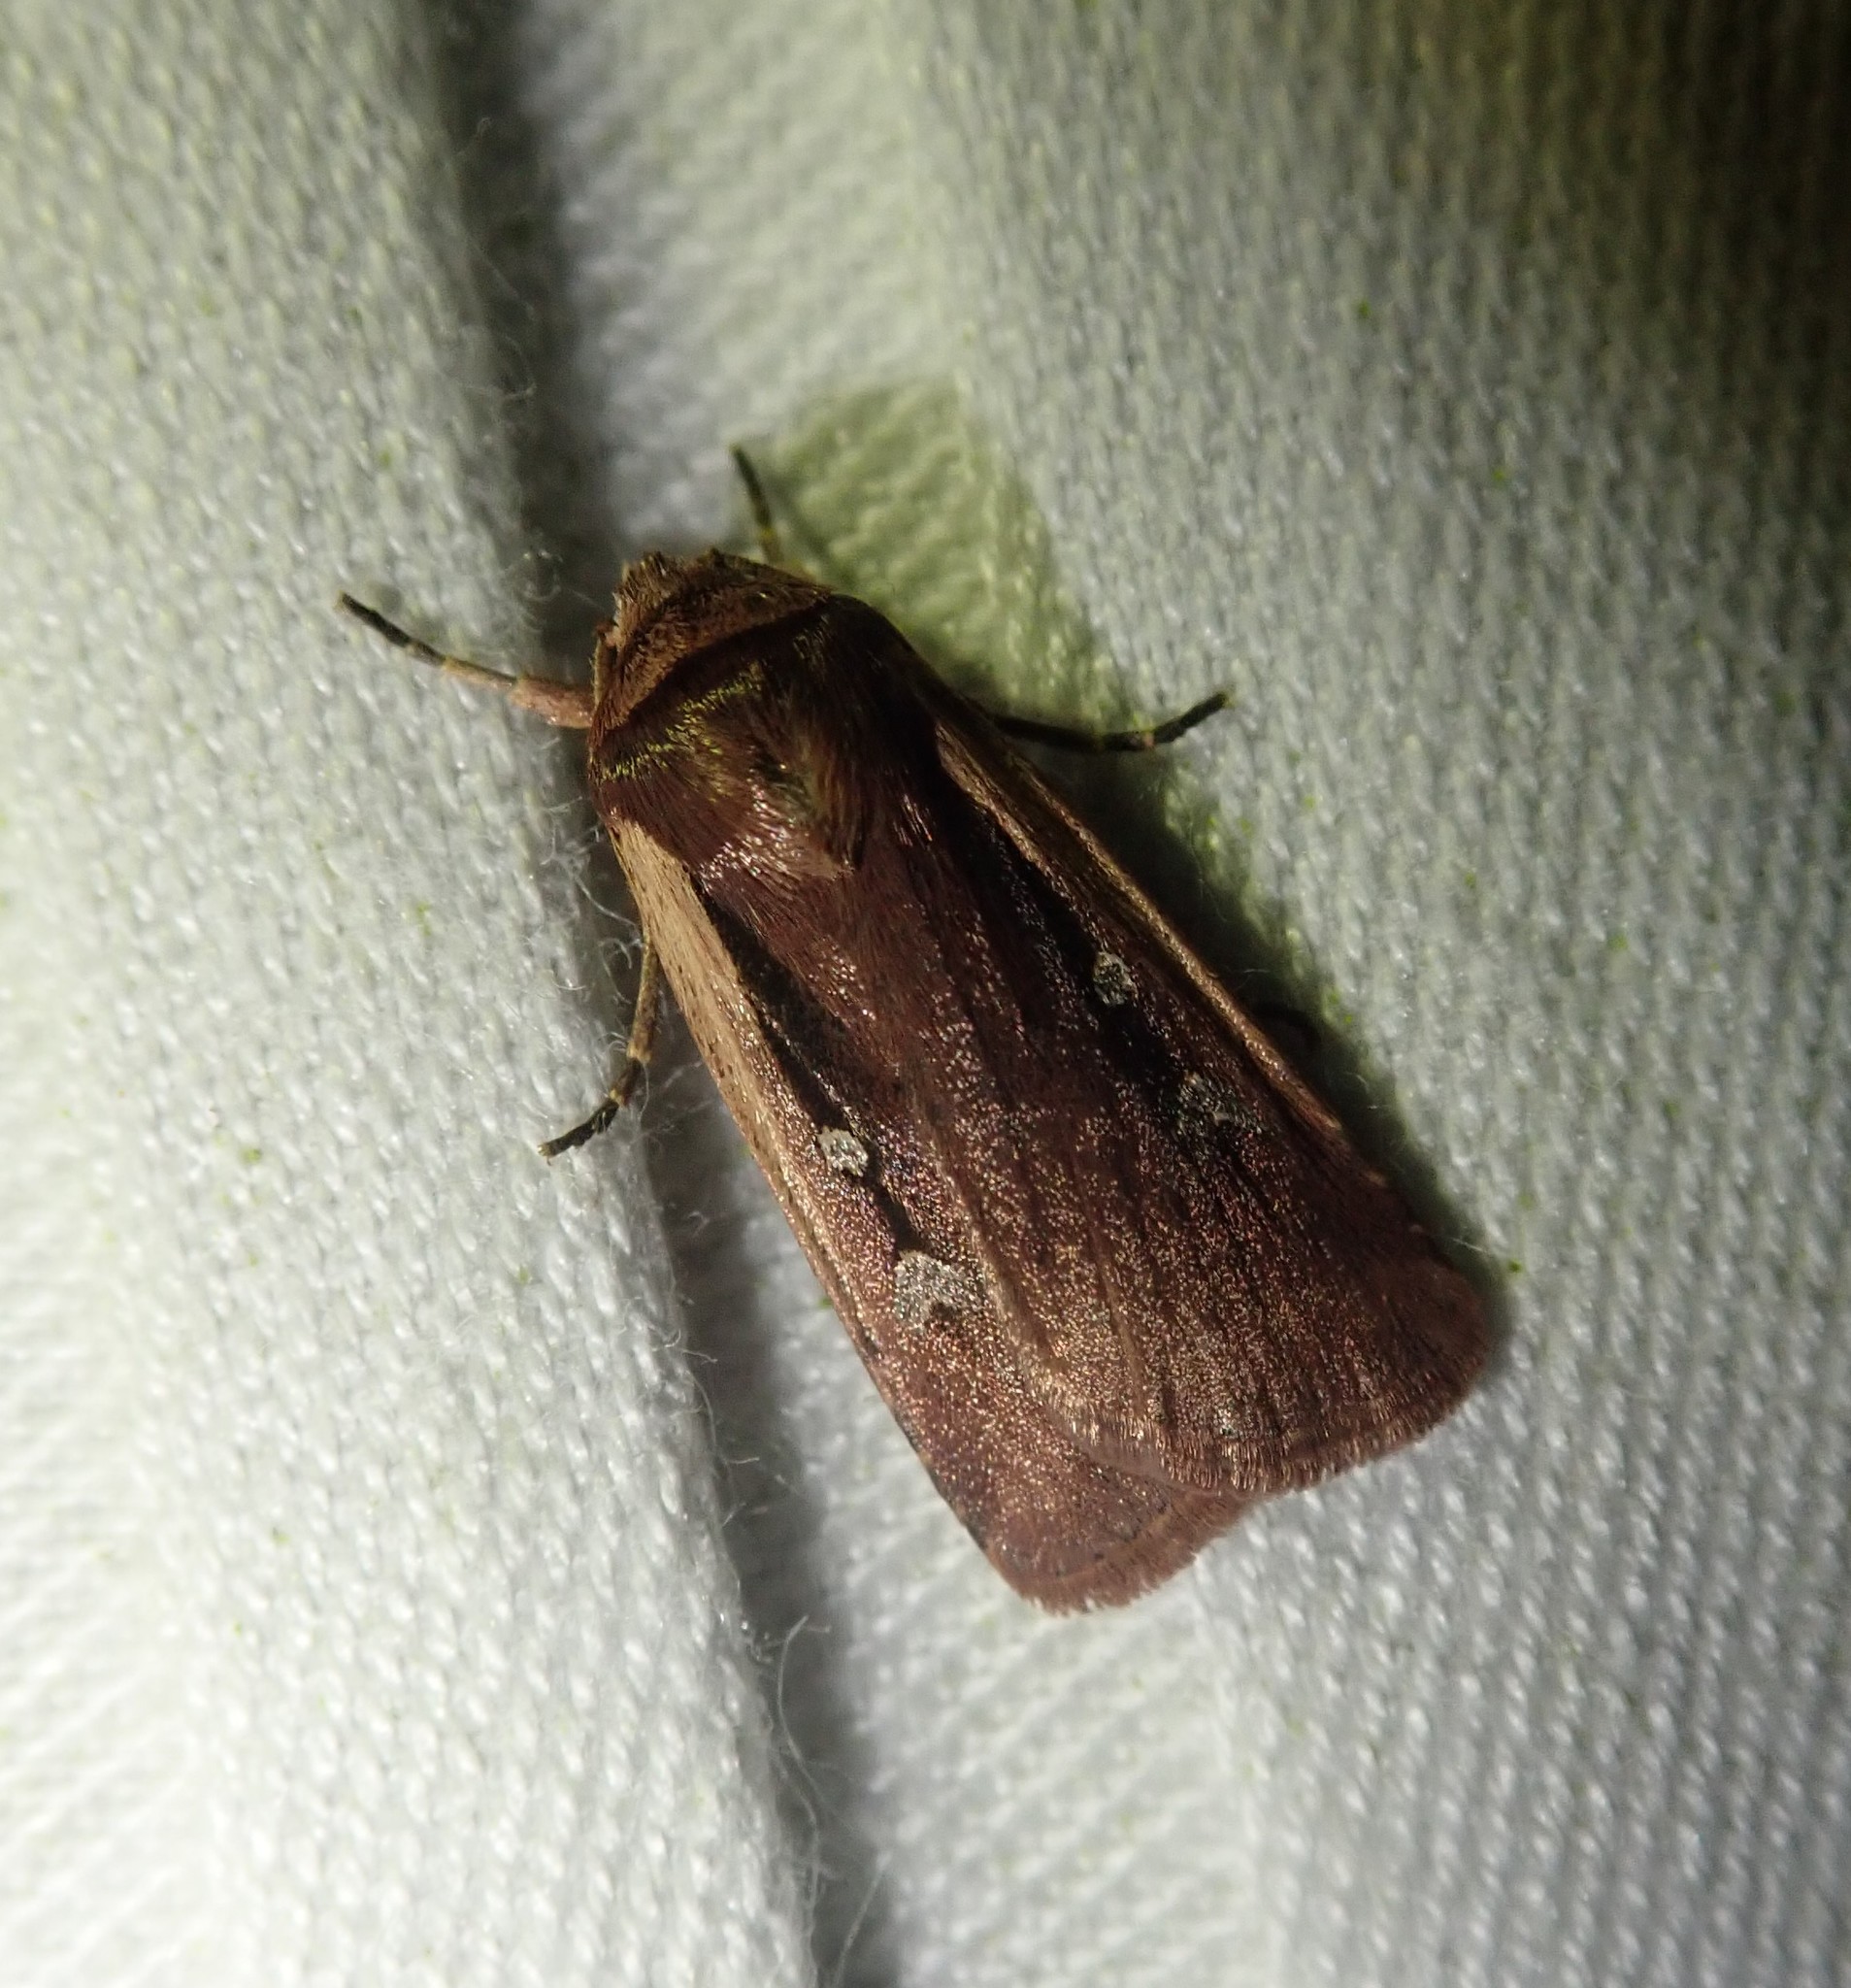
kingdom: Animalia
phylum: Arthropoda
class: Insecta
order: Lepidoptera
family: Noctuidae
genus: Ochropleura
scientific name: Ochropleura plecta
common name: Flame shoulder
